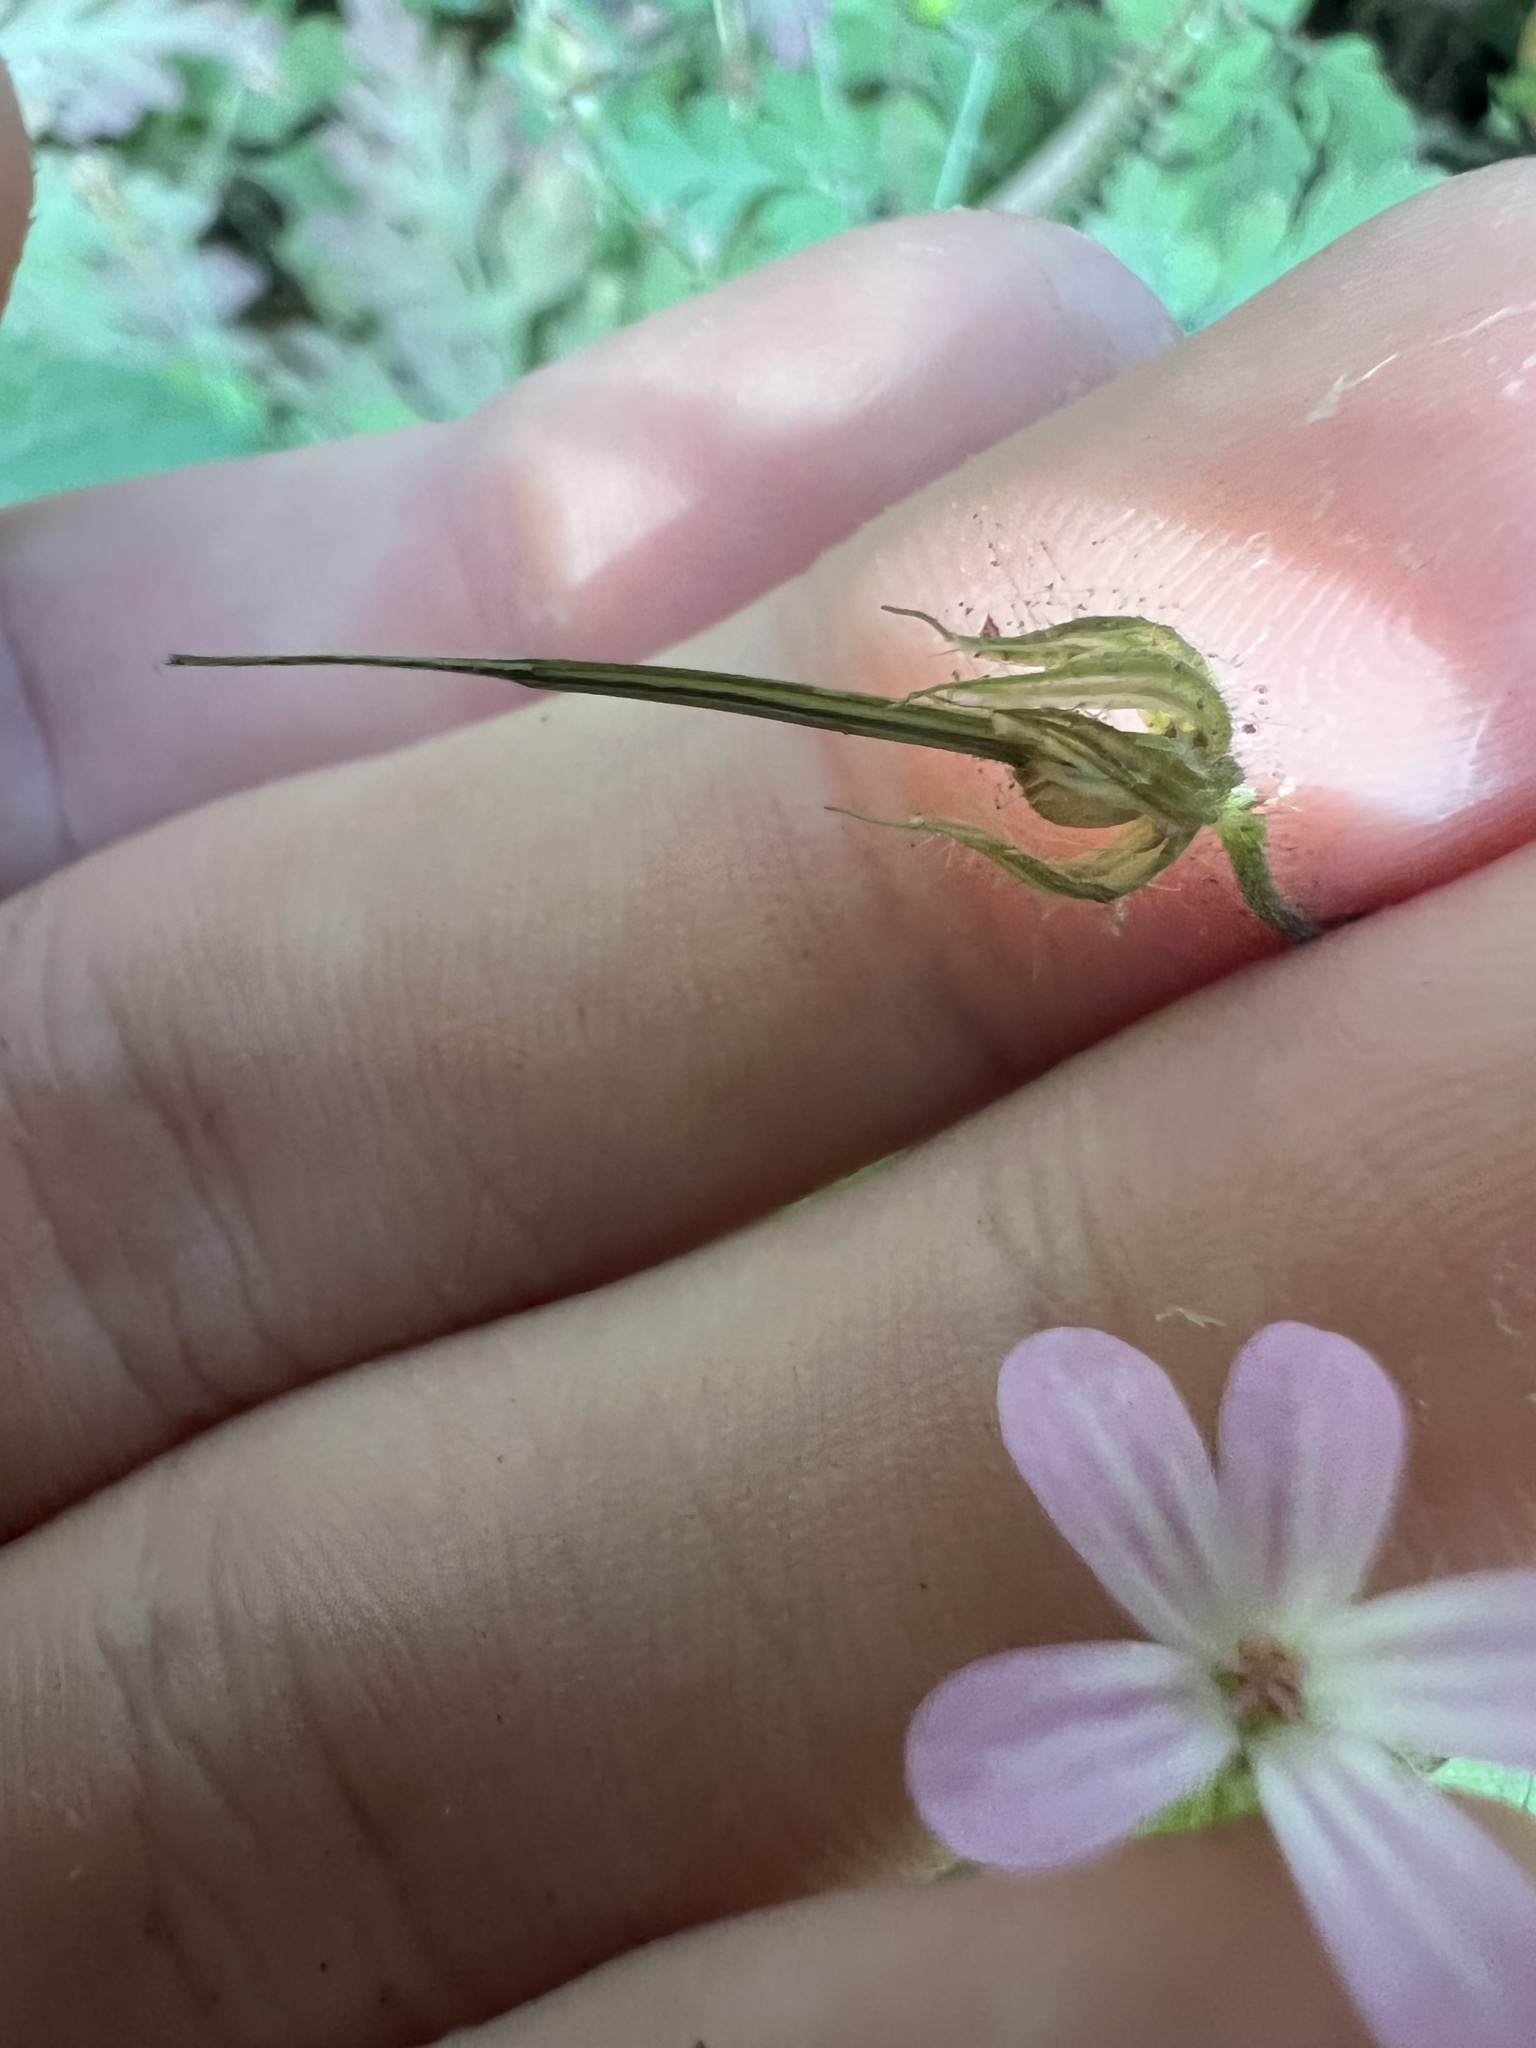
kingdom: Plantae
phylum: Tracheophyta
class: Magnoliopsida
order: Geraniales
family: Geraniaceae
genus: Geranium
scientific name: Geranium robertianum
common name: Herb-robert
